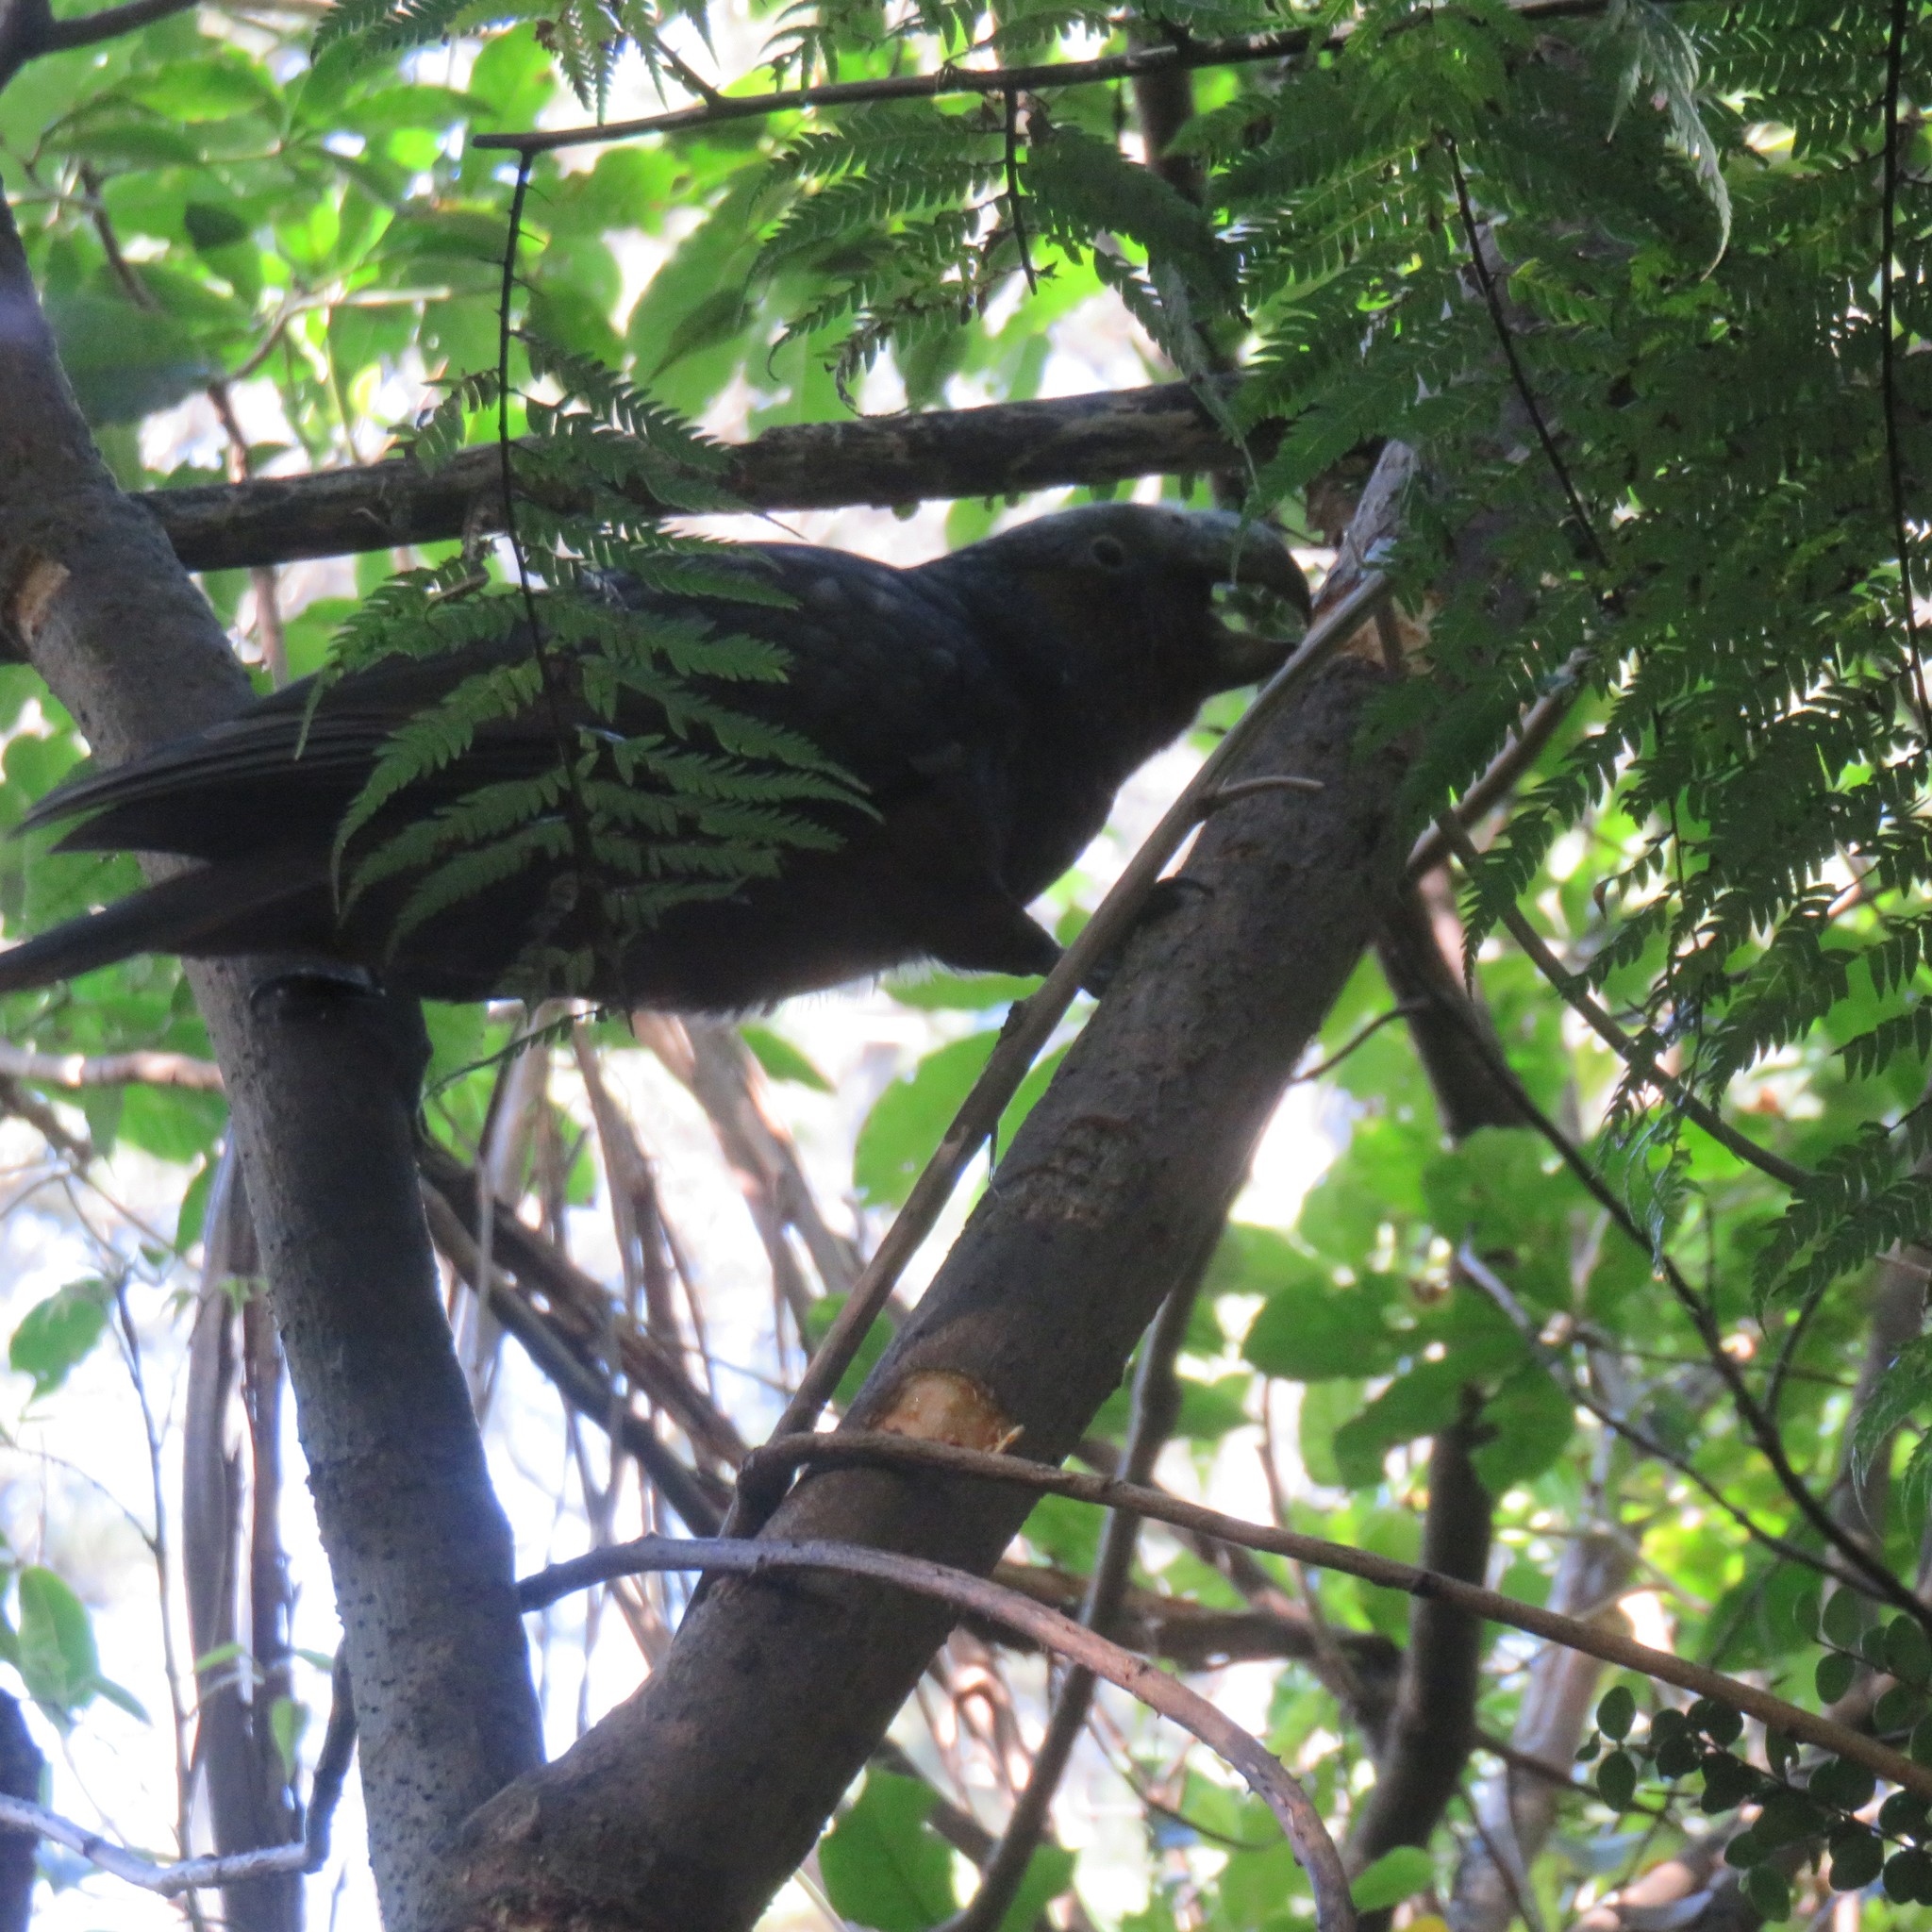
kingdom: Animalia
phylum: Chordata
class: Aves
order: Psittaciformes
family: Psittacidae
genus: Nestor
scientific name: Nestor meridionalis
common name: New zealand kaka
